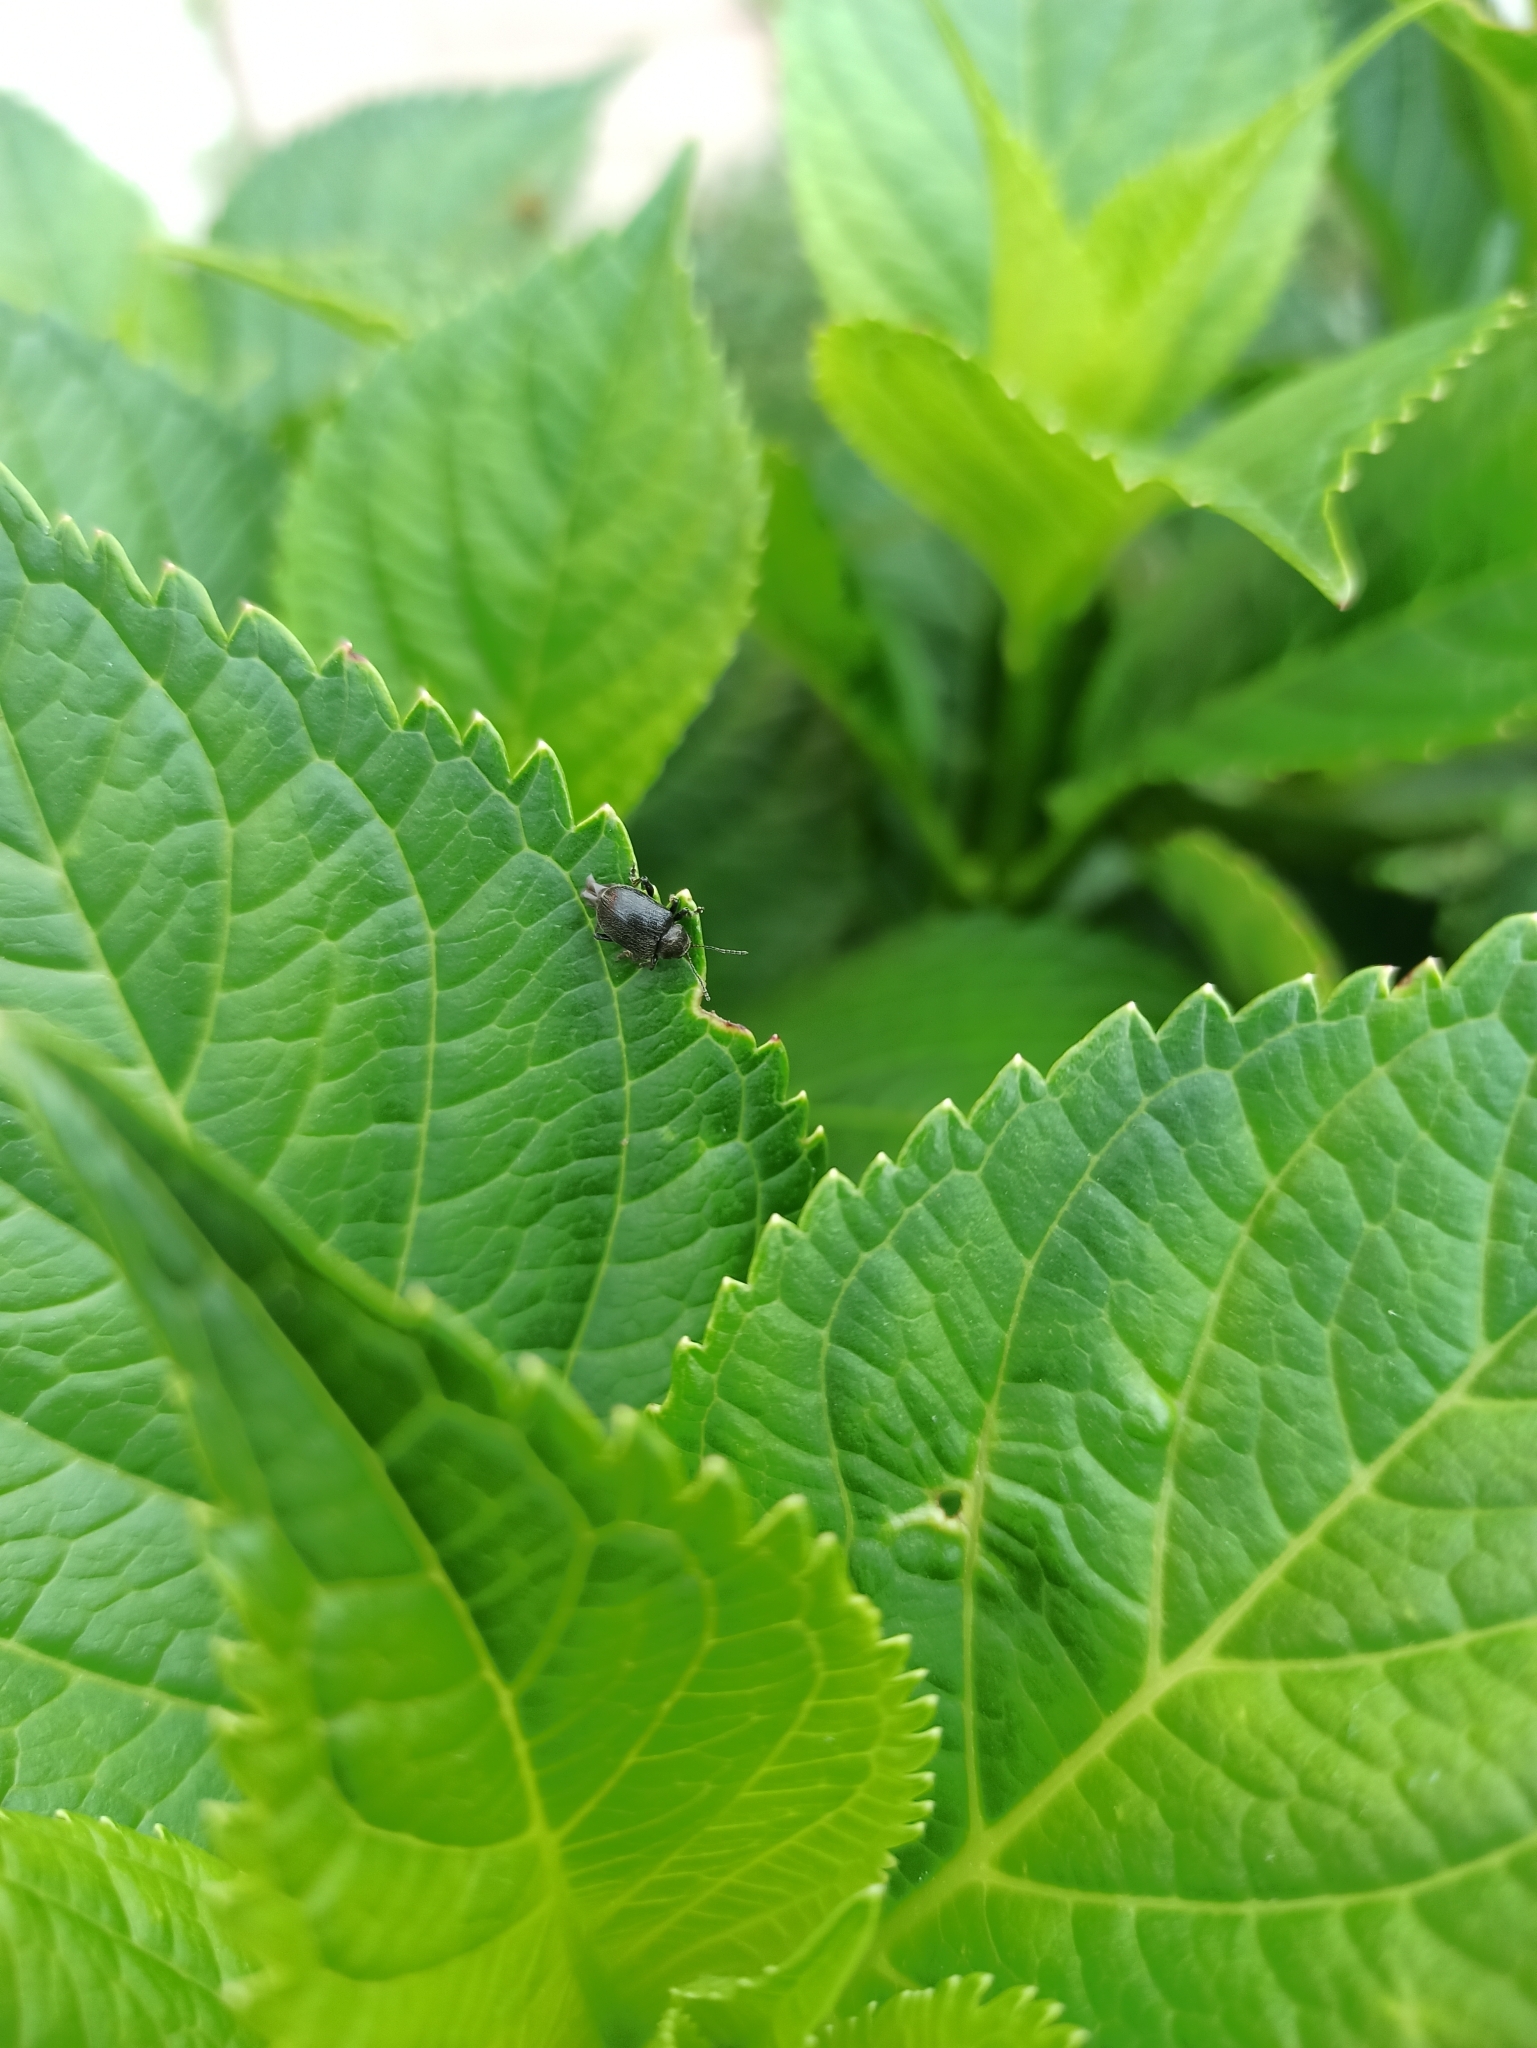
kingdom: Animalia
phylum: Arthropoda
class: Insecta
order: Coleoptera
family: Chrysomelidae
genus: Bromius
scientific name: Bromius obscurus
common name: Western grape rootworm
